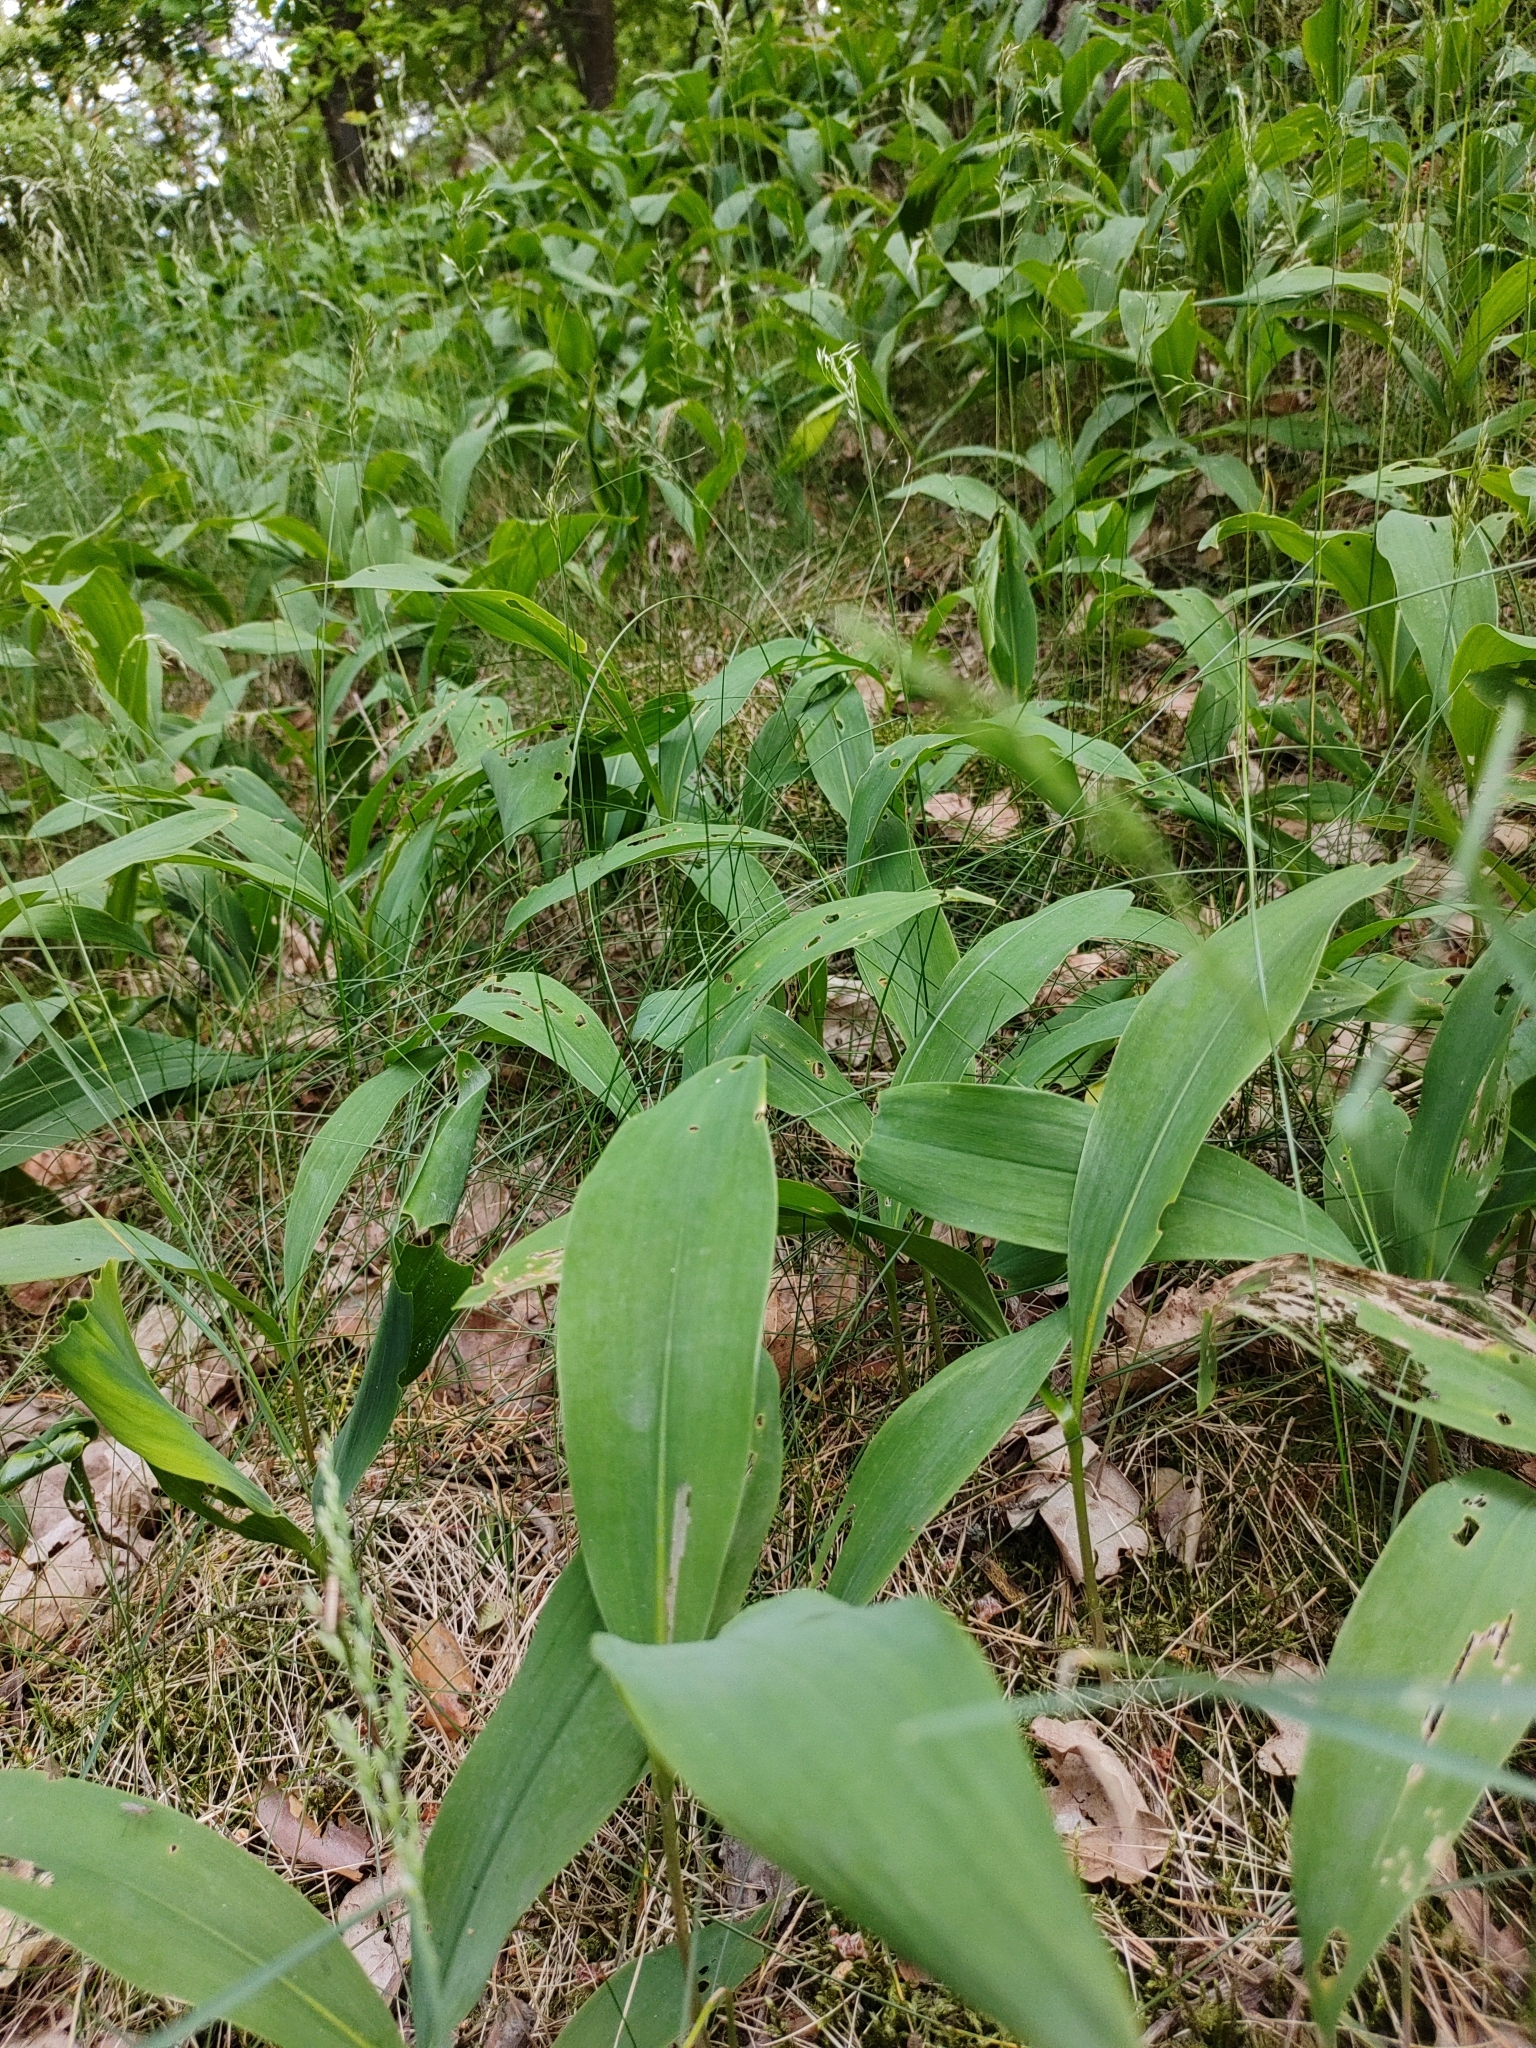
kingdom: Plantae
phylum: Tracheophyta
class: Liliopsida
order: Asparagales
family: Asparagaceae
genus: Convallaria
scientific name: Convallaria majalis
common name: Lily-of-the-valley
